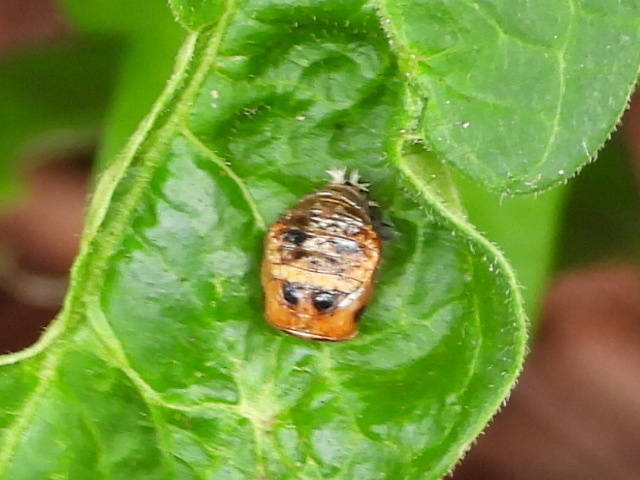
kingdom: Animalia
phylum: Arthropoda
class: Insecta
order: Coleoptera
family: Coccinellidae
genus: Harmonia
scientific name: Harmonia axyridis
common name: Harlequin ladybird
